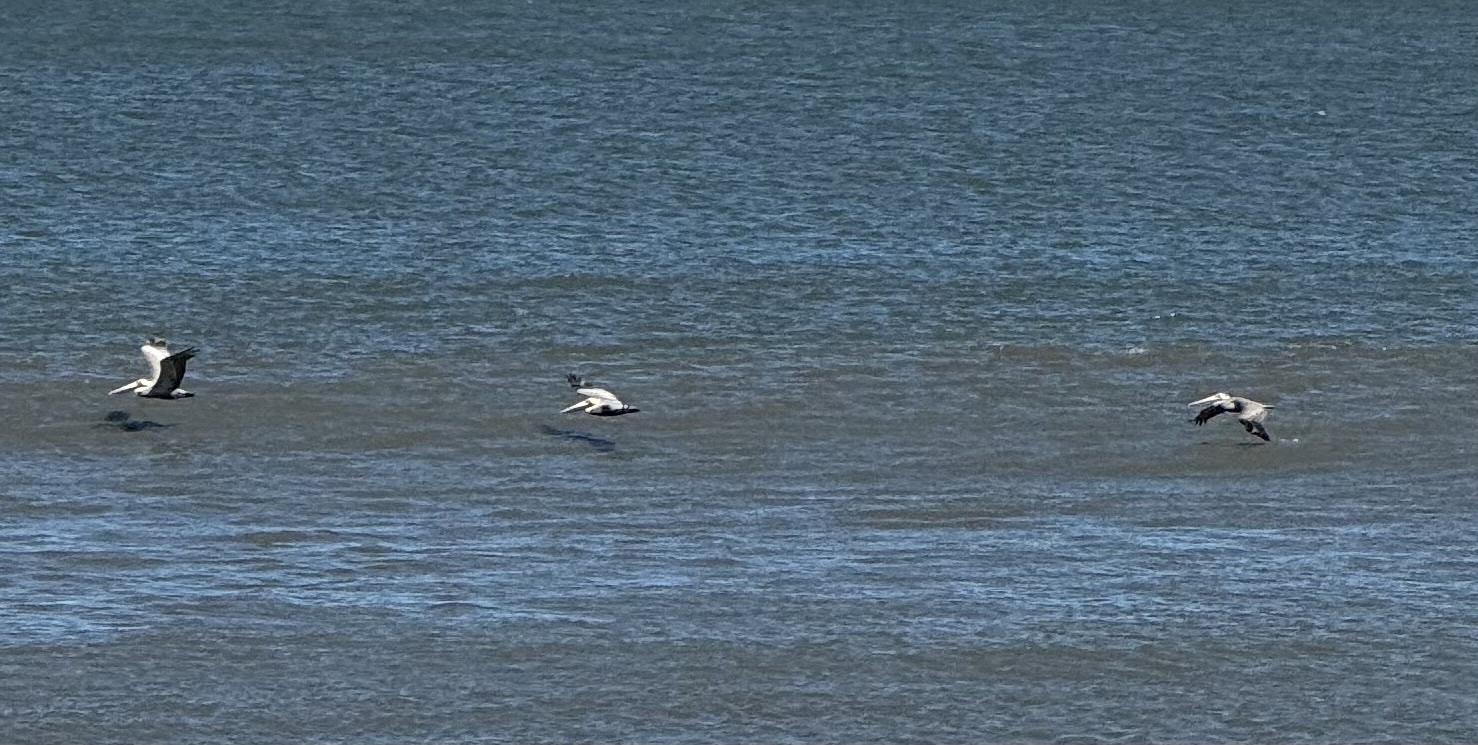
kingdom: Animalia
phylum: Chordata
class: Aves
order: Pelecaniformes
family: Pelecanidae
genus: Pelecanus
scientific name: Pelecanus occidentalis
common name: Brown pelican
